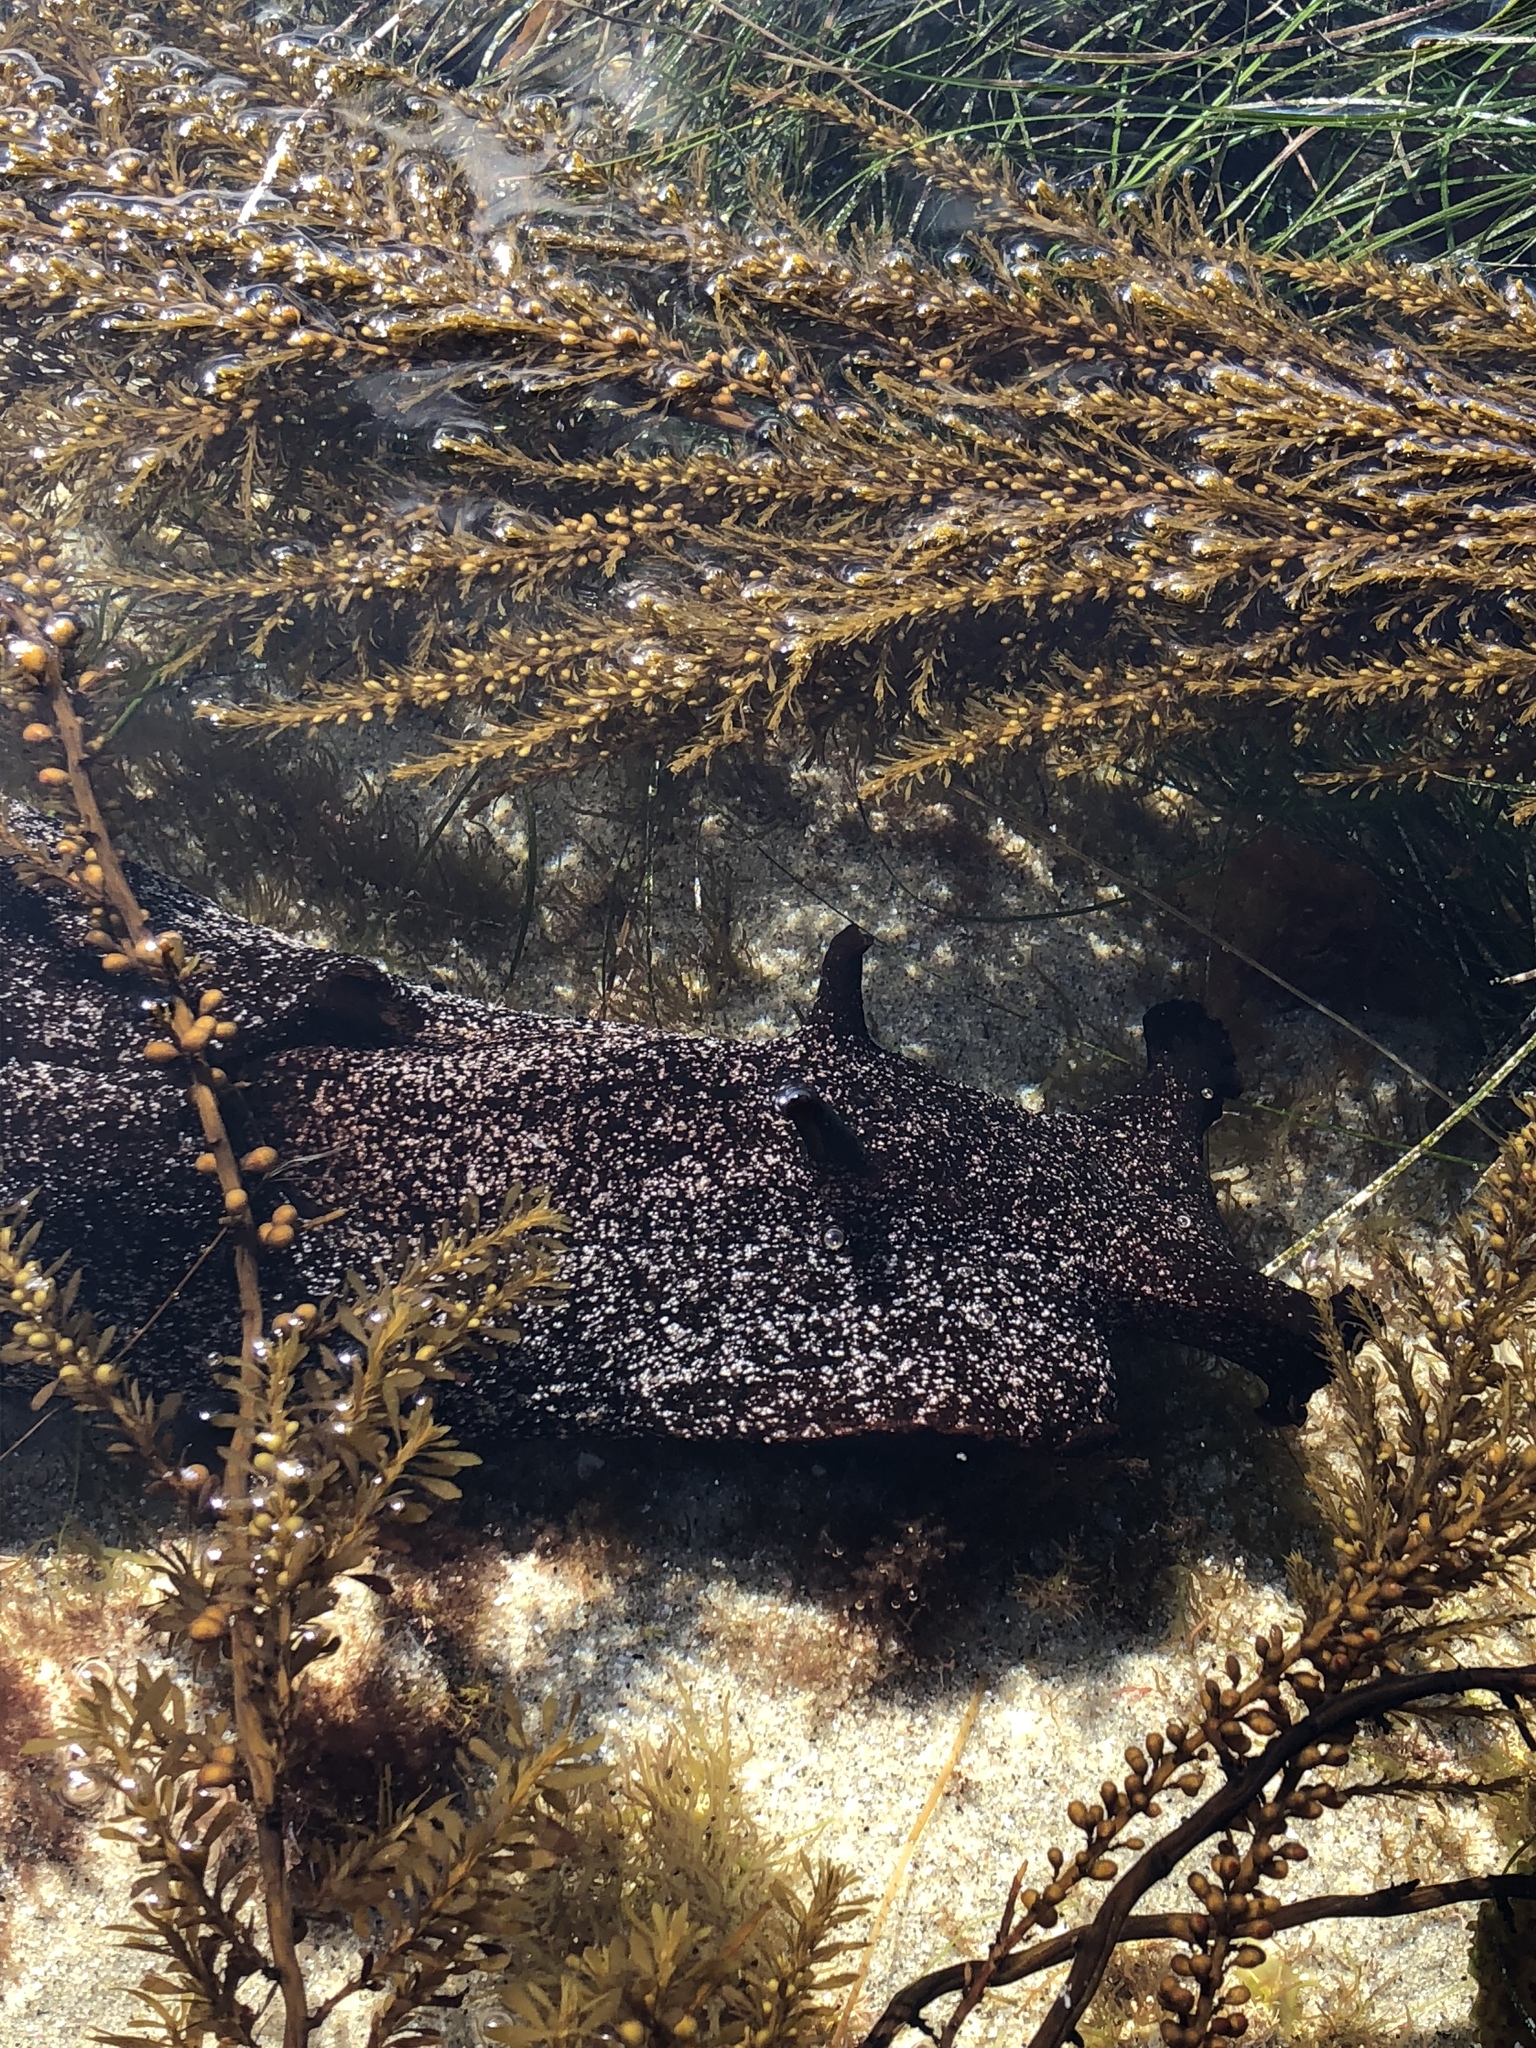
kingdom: Animalia
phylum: Mollusca
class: Gastropoda
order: Aplysiida
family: Aplysiidae
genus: Aplysia
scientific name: Aplysia vaccaria
